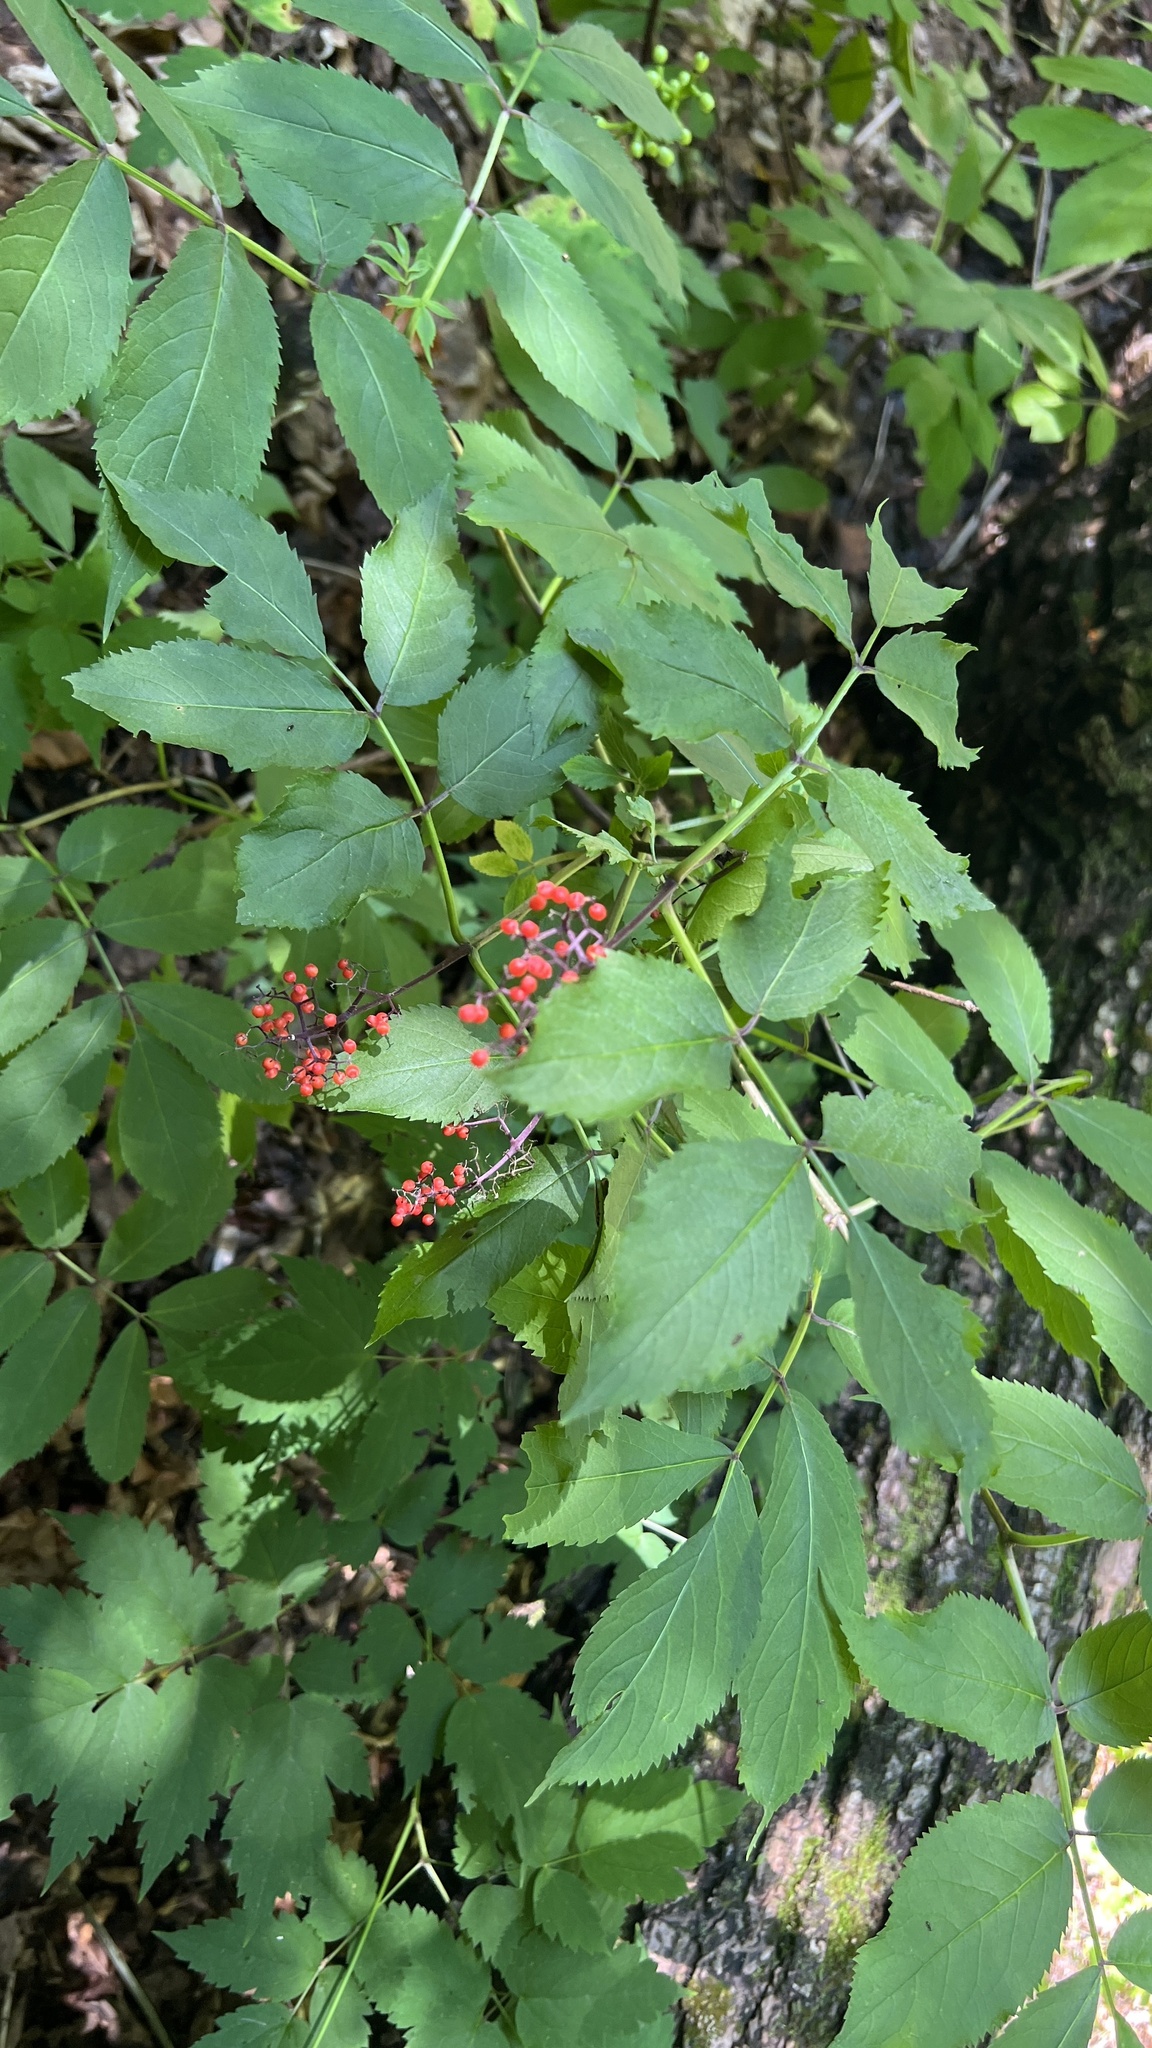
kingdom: Plantae
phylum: Tracheophyta
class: Magnoliopsida
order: Dipsacales
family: Viburnaceae
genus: Sambucus
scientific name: Sambucus racemosa
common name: Red-berried elder
